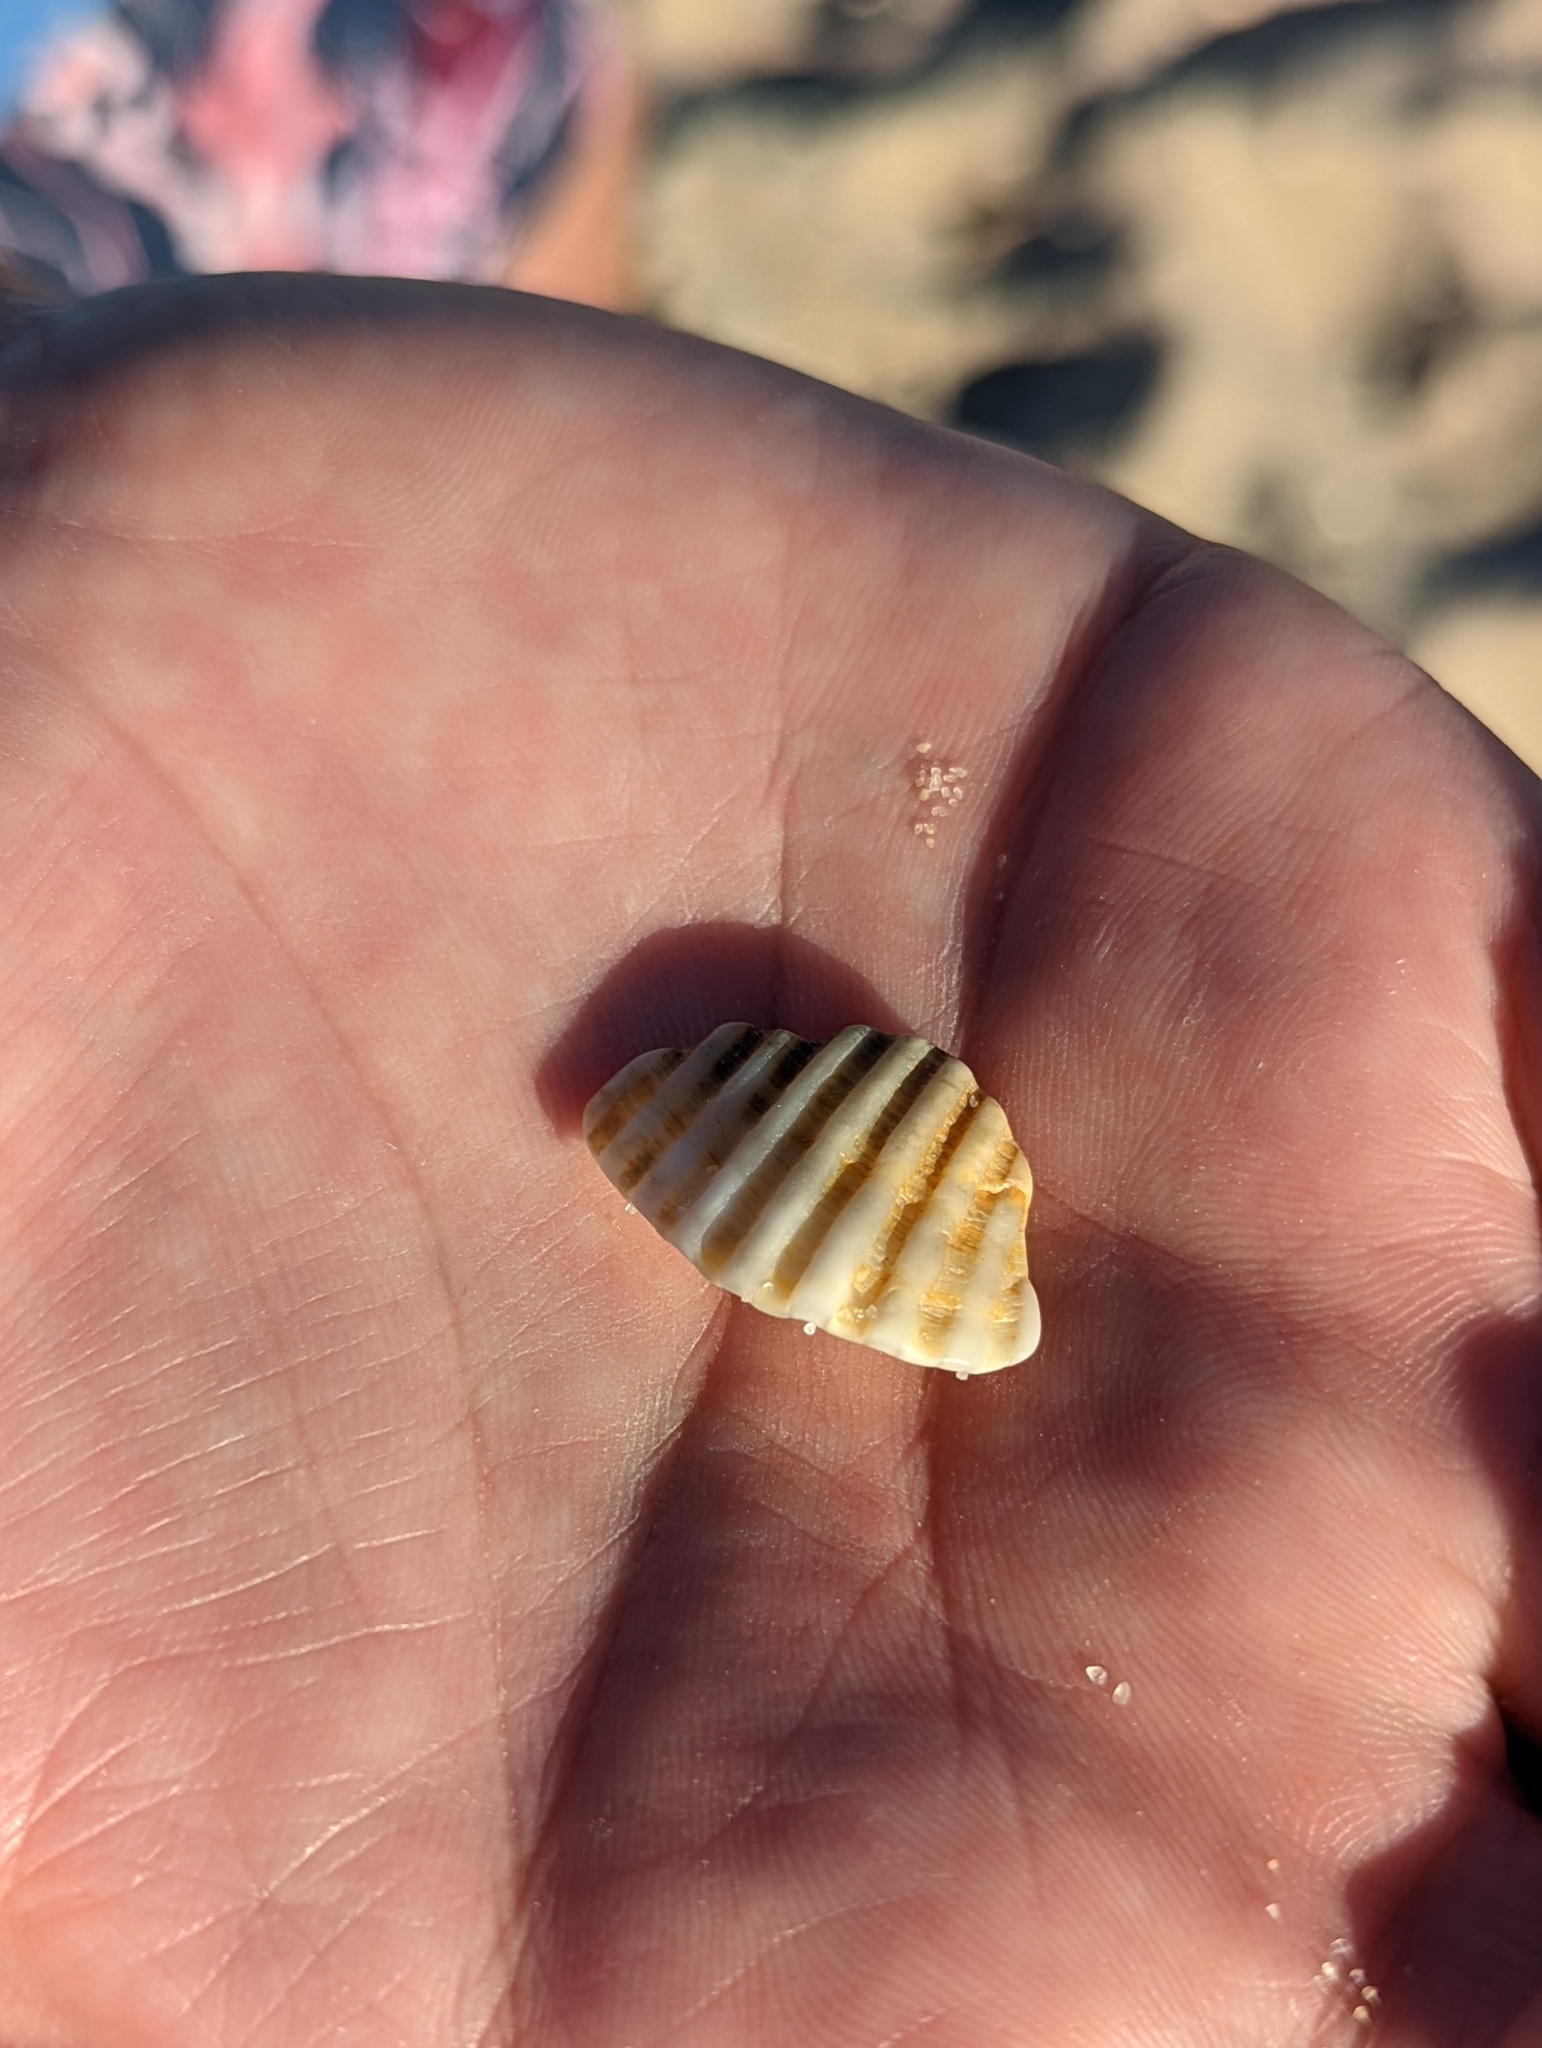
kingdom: Animalia
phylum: Mollusca
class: Bivalvia
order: Arcida
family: Arcidae
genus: Anadara
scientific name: Anadara trapezia
